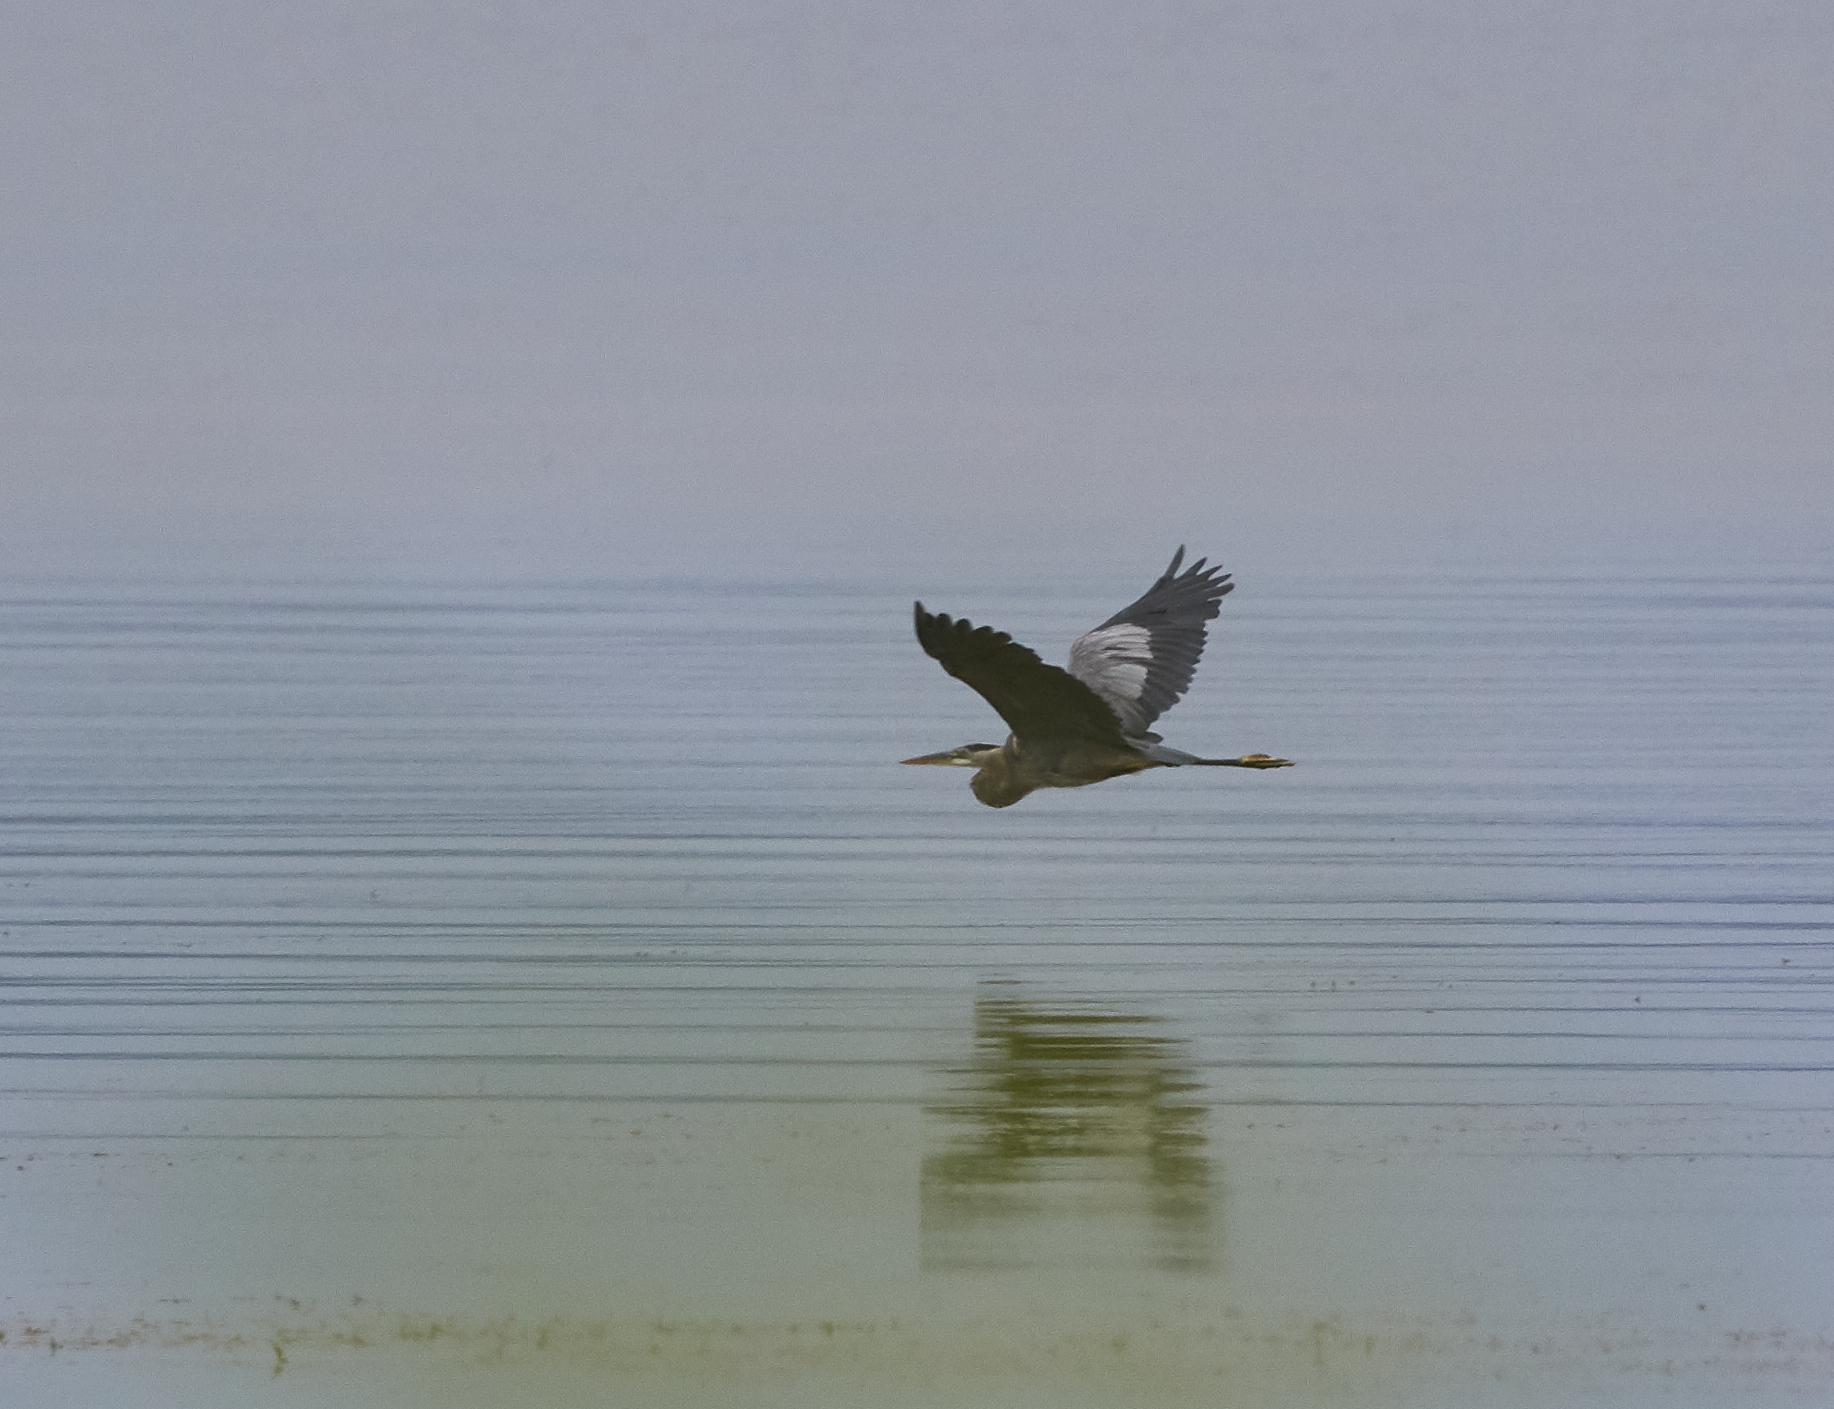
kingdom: Animalia
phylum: Chordata
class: Aves
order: Pelecaniformes
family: Ardeidae
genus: Ardea
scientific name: Ardea herodias
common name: Great blue heron
